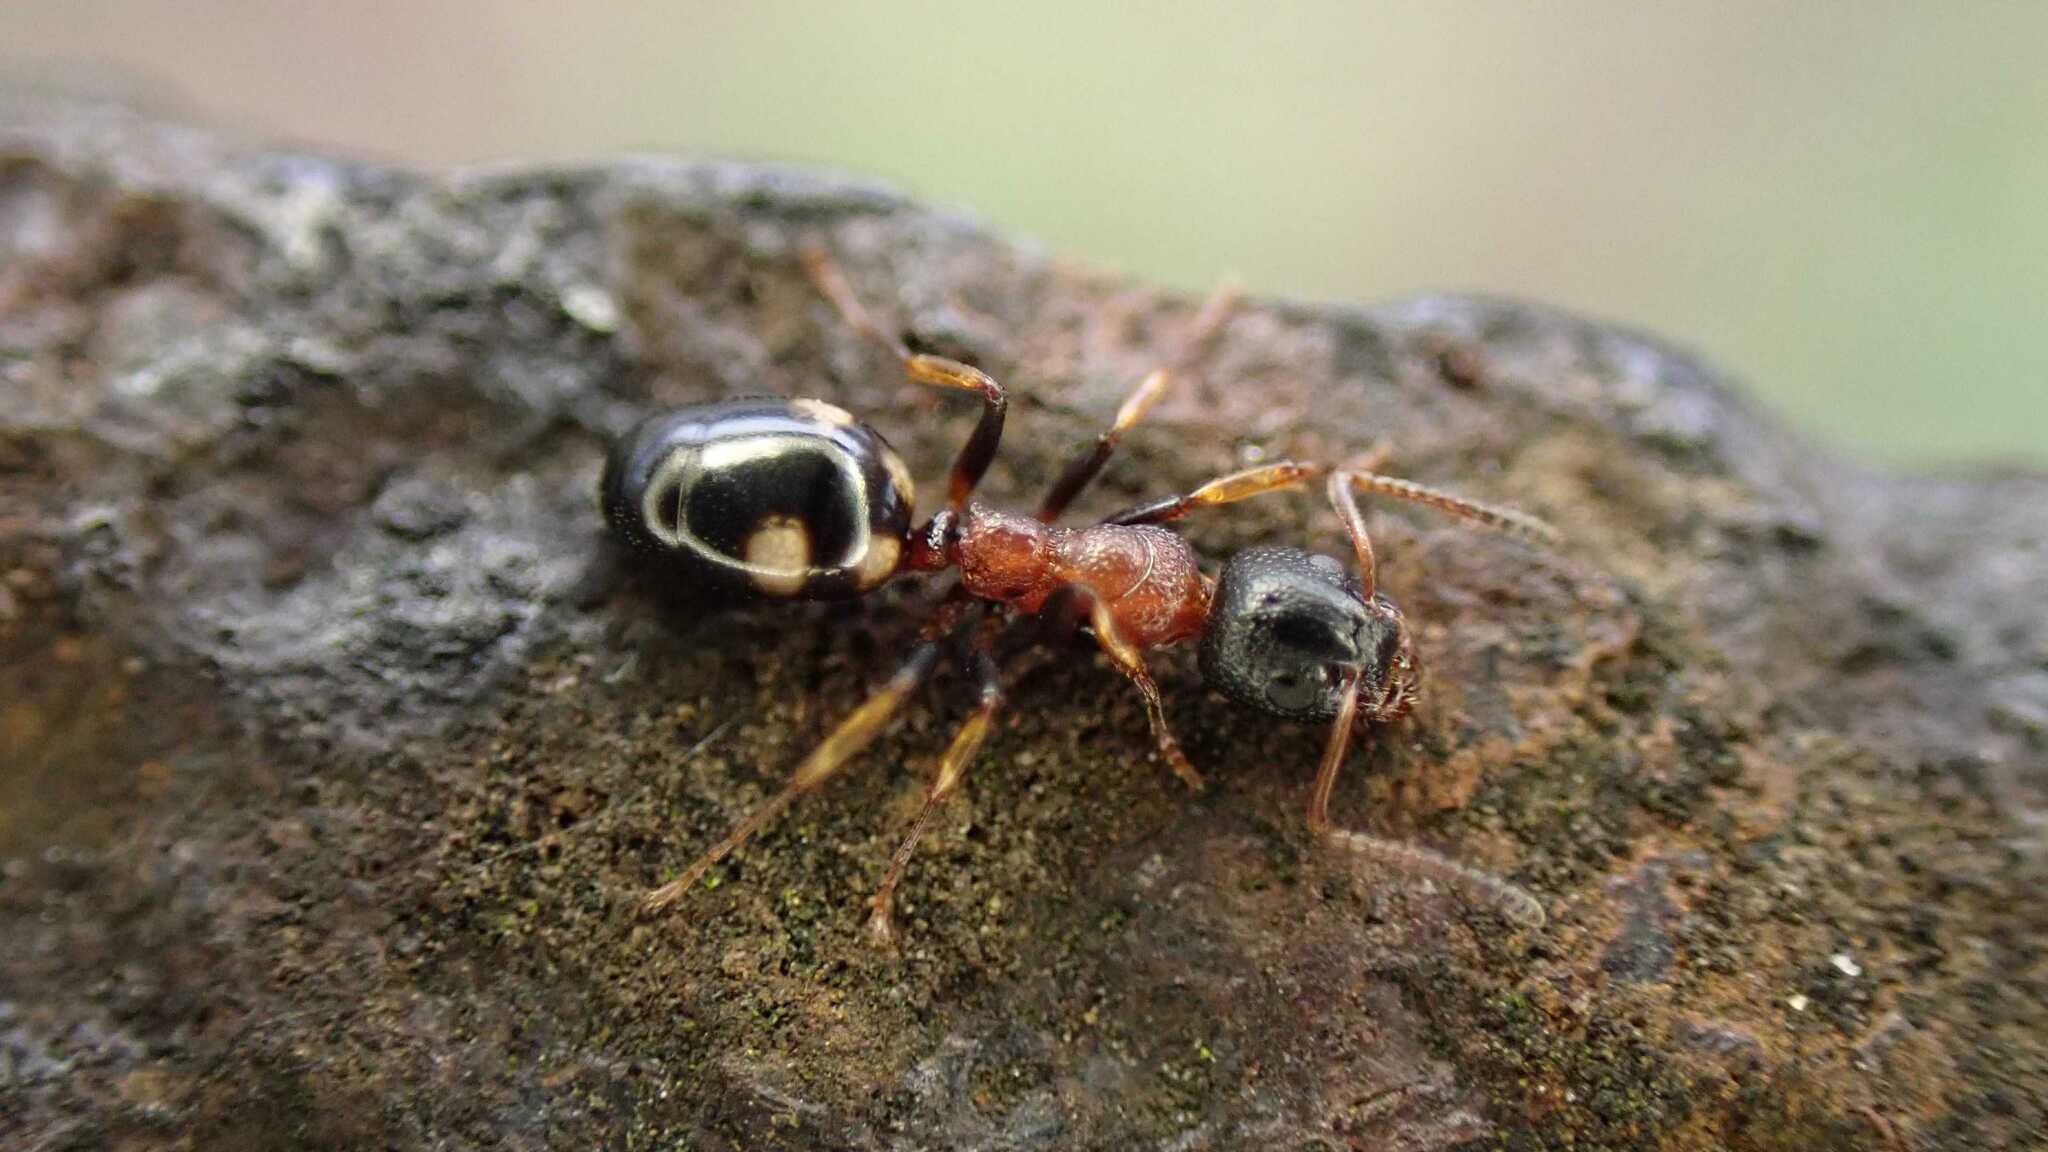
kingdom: Animalia
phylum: Arthropoda
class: Insecta
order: Hymenoptera
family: Formicidae
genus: Dolichoderus
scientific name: Dolichoderus quadripunctatus
